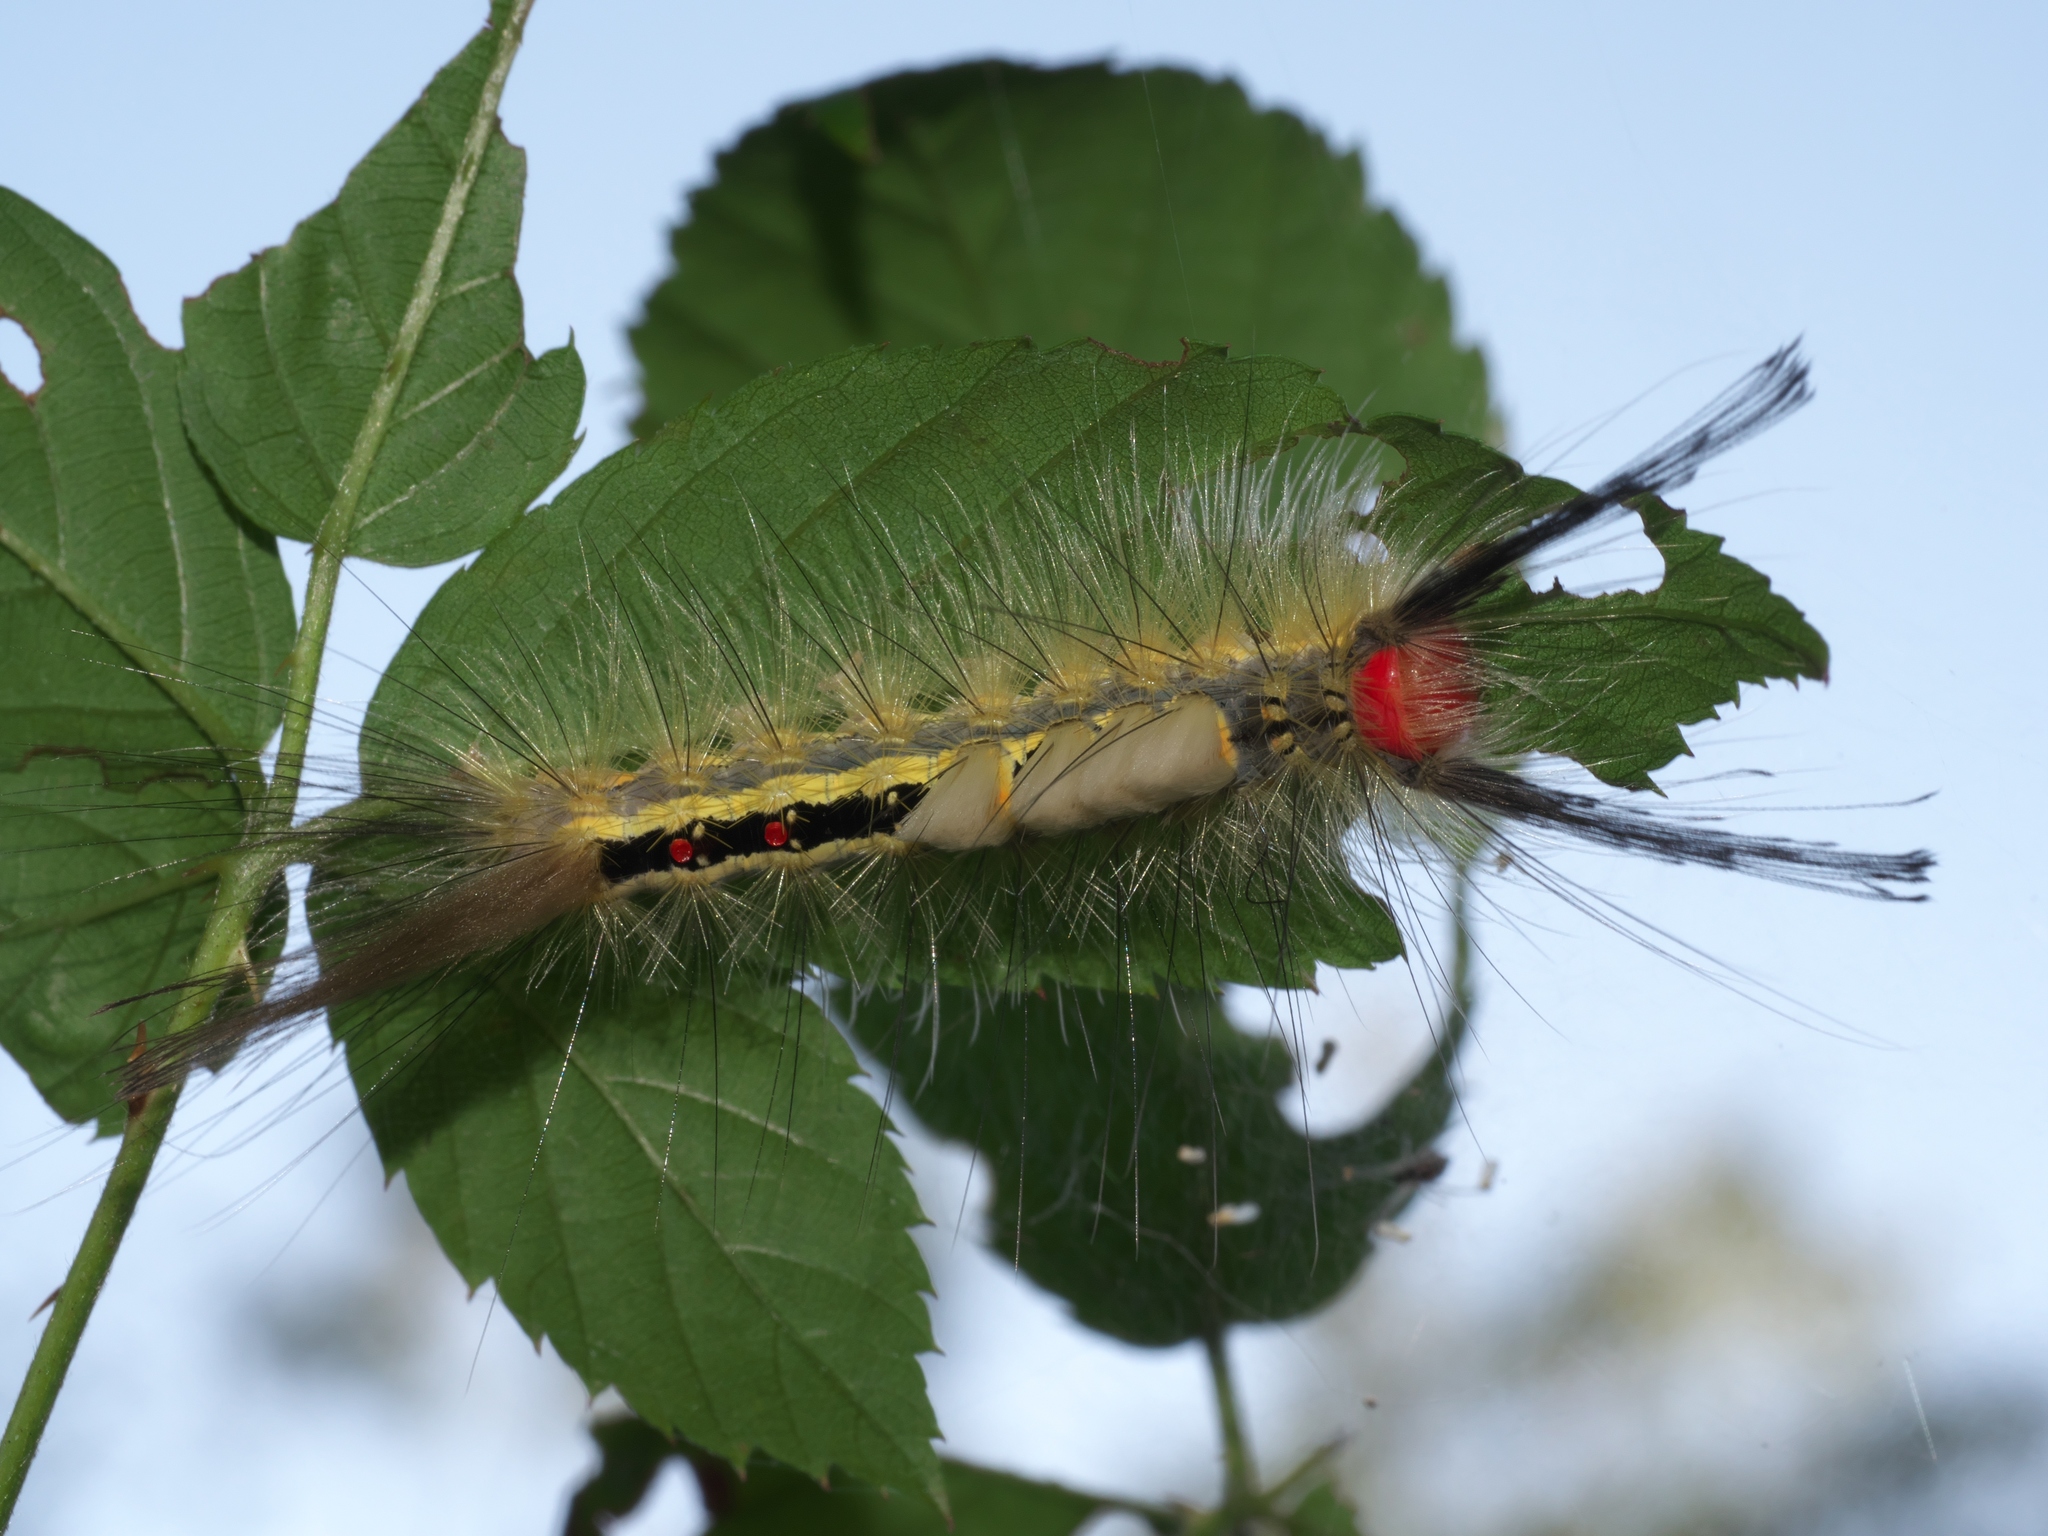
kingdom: Animalia
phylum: Arthropoda
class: Insecta
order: Lepidoptera
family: Erebidae
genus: Orgyia
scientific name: Orgyia leucostigma
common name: White-marked tussock moth
